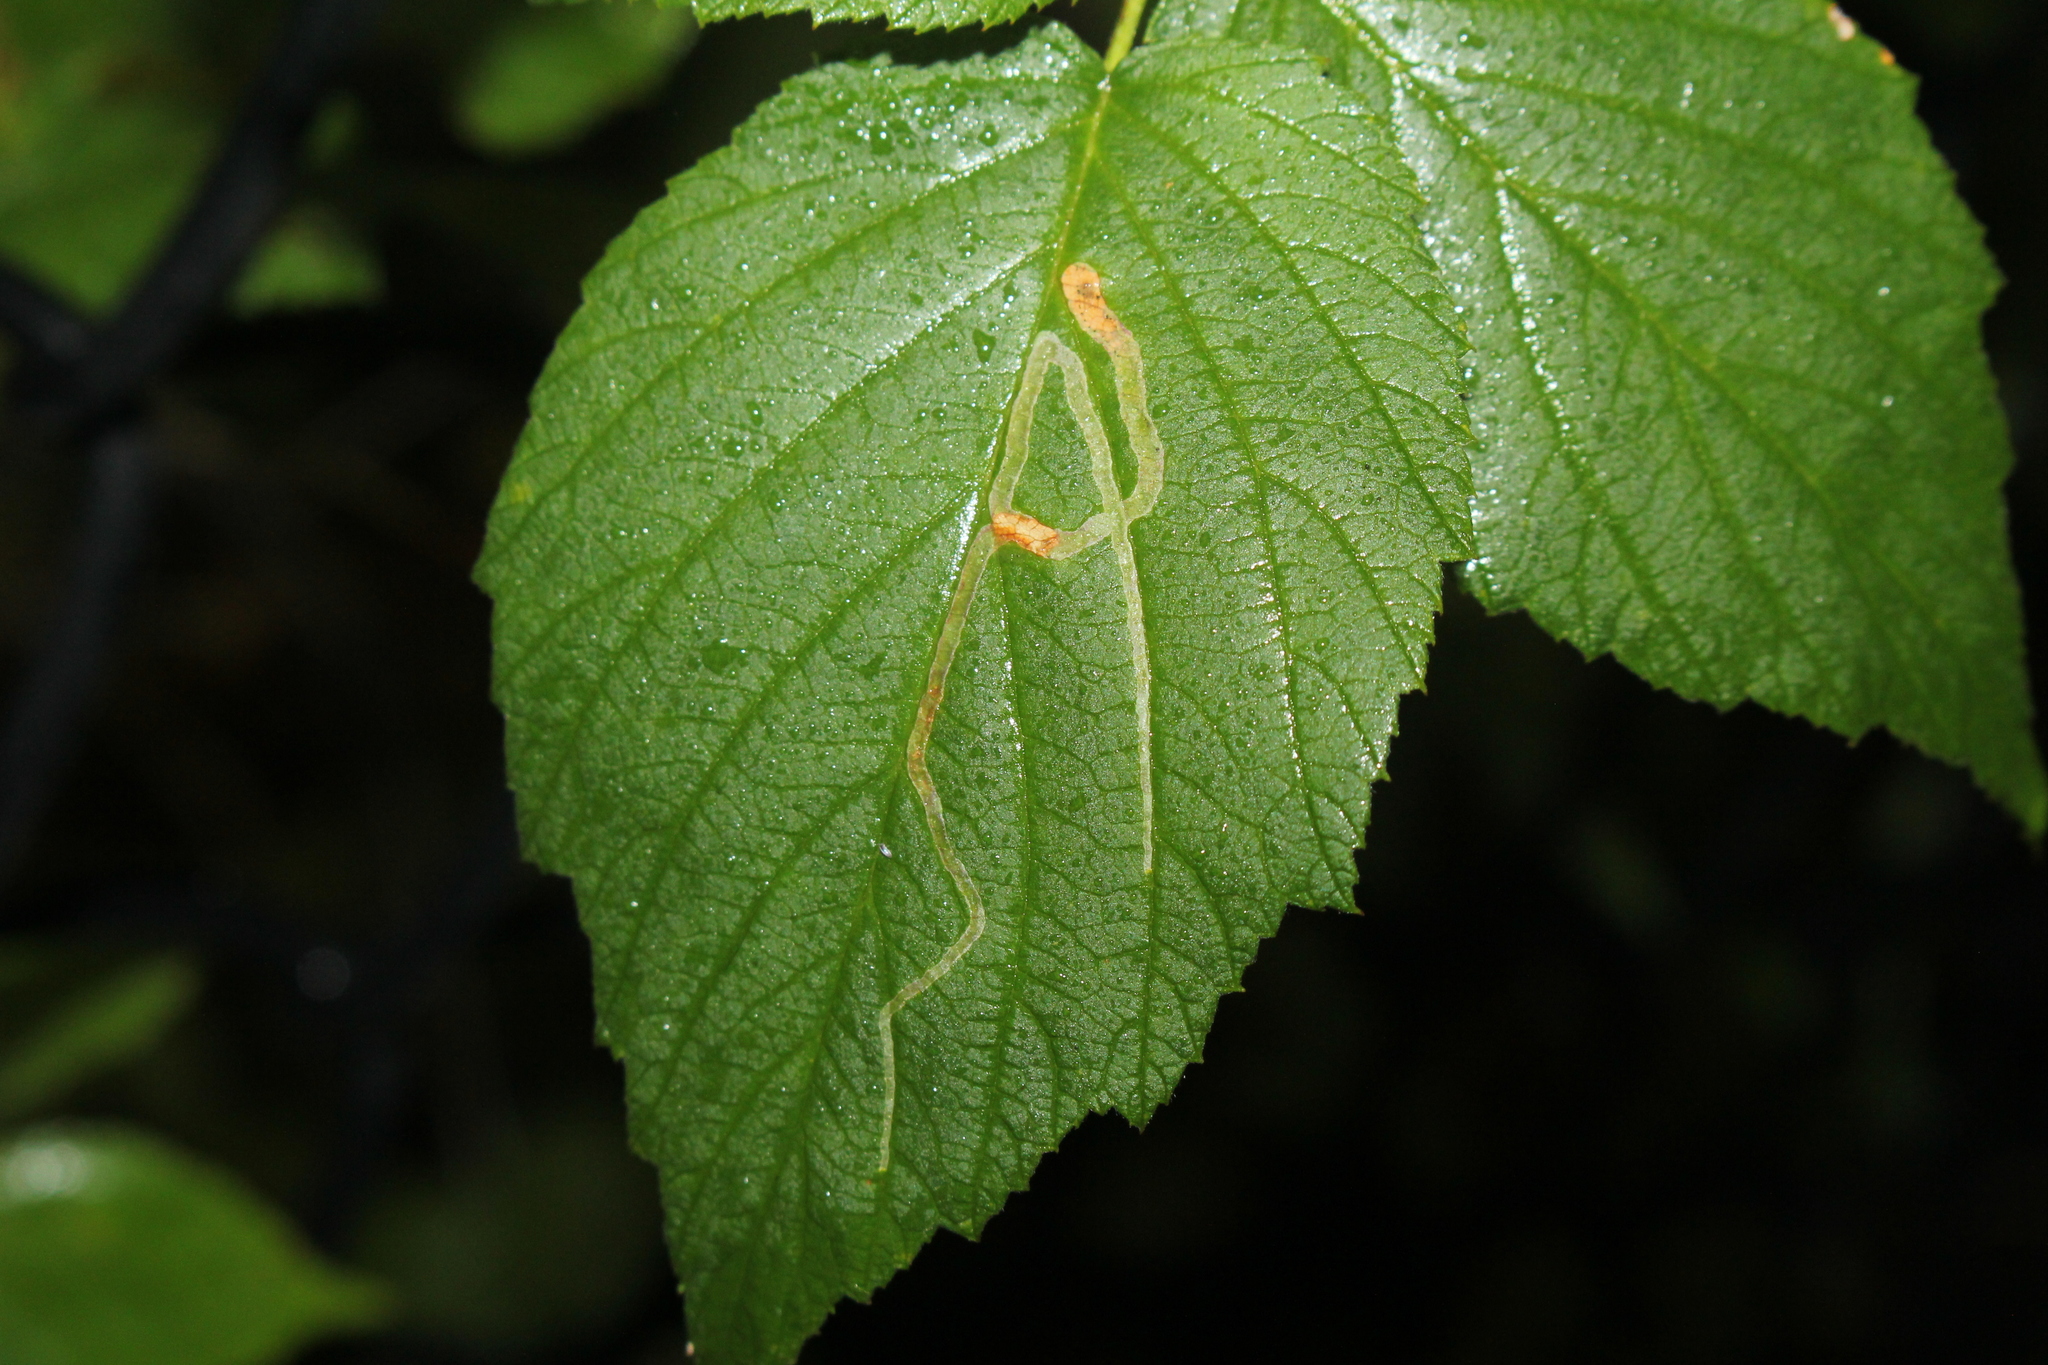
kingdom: Animalia
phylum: Arthropoda
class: Insecta
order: Diptera
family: Agromyzidae
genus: Agromyza
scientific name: Agromyza vockerothi
